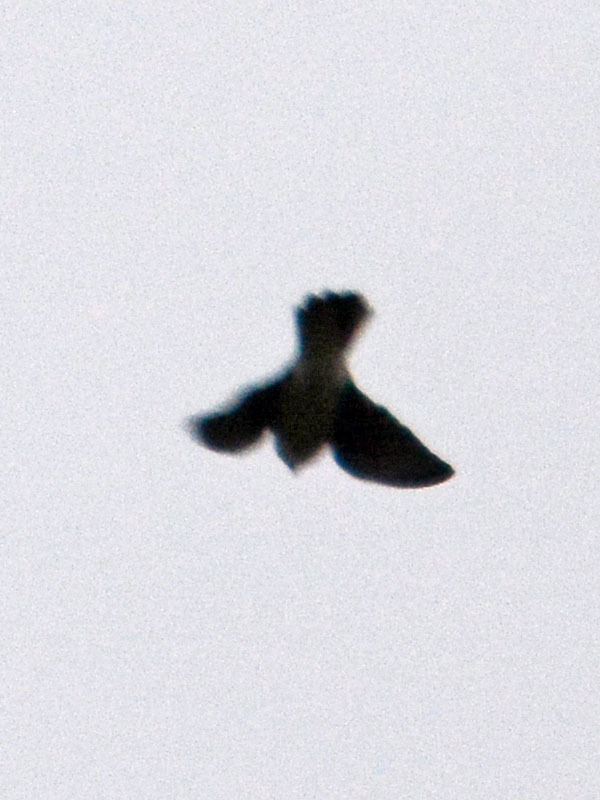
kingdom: Animalia
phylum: Chordata
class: Aves
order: Passeriformes
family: Hirundinidae
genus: Petrochelidon
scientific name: Petrochelidon pyrrhonota
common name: American cliff swallow
